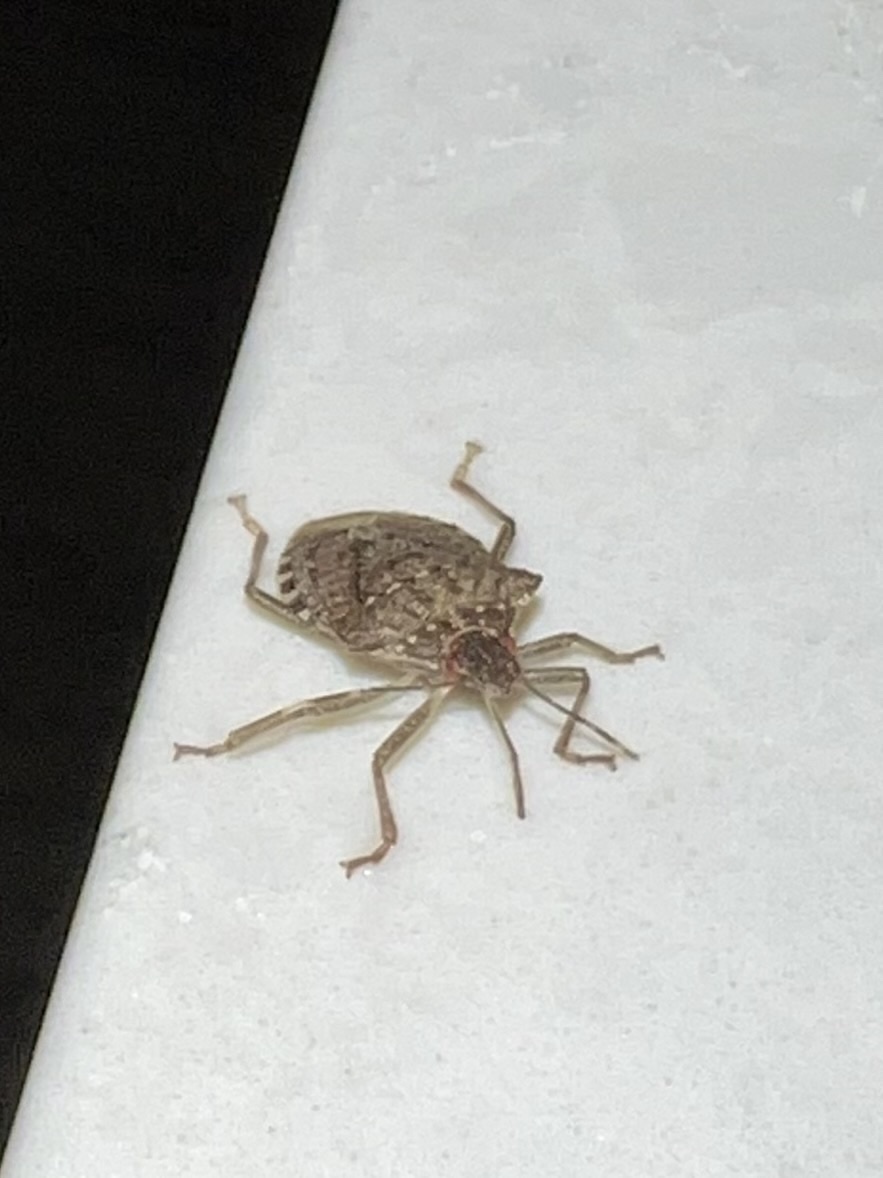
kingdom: Animalia
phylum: Arthropoda
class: Insecta
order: Hemiptera
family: Pentatomidae
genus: Halyomorpha
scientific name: Halyomorpha halys
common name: Brown marmorated stink bug
